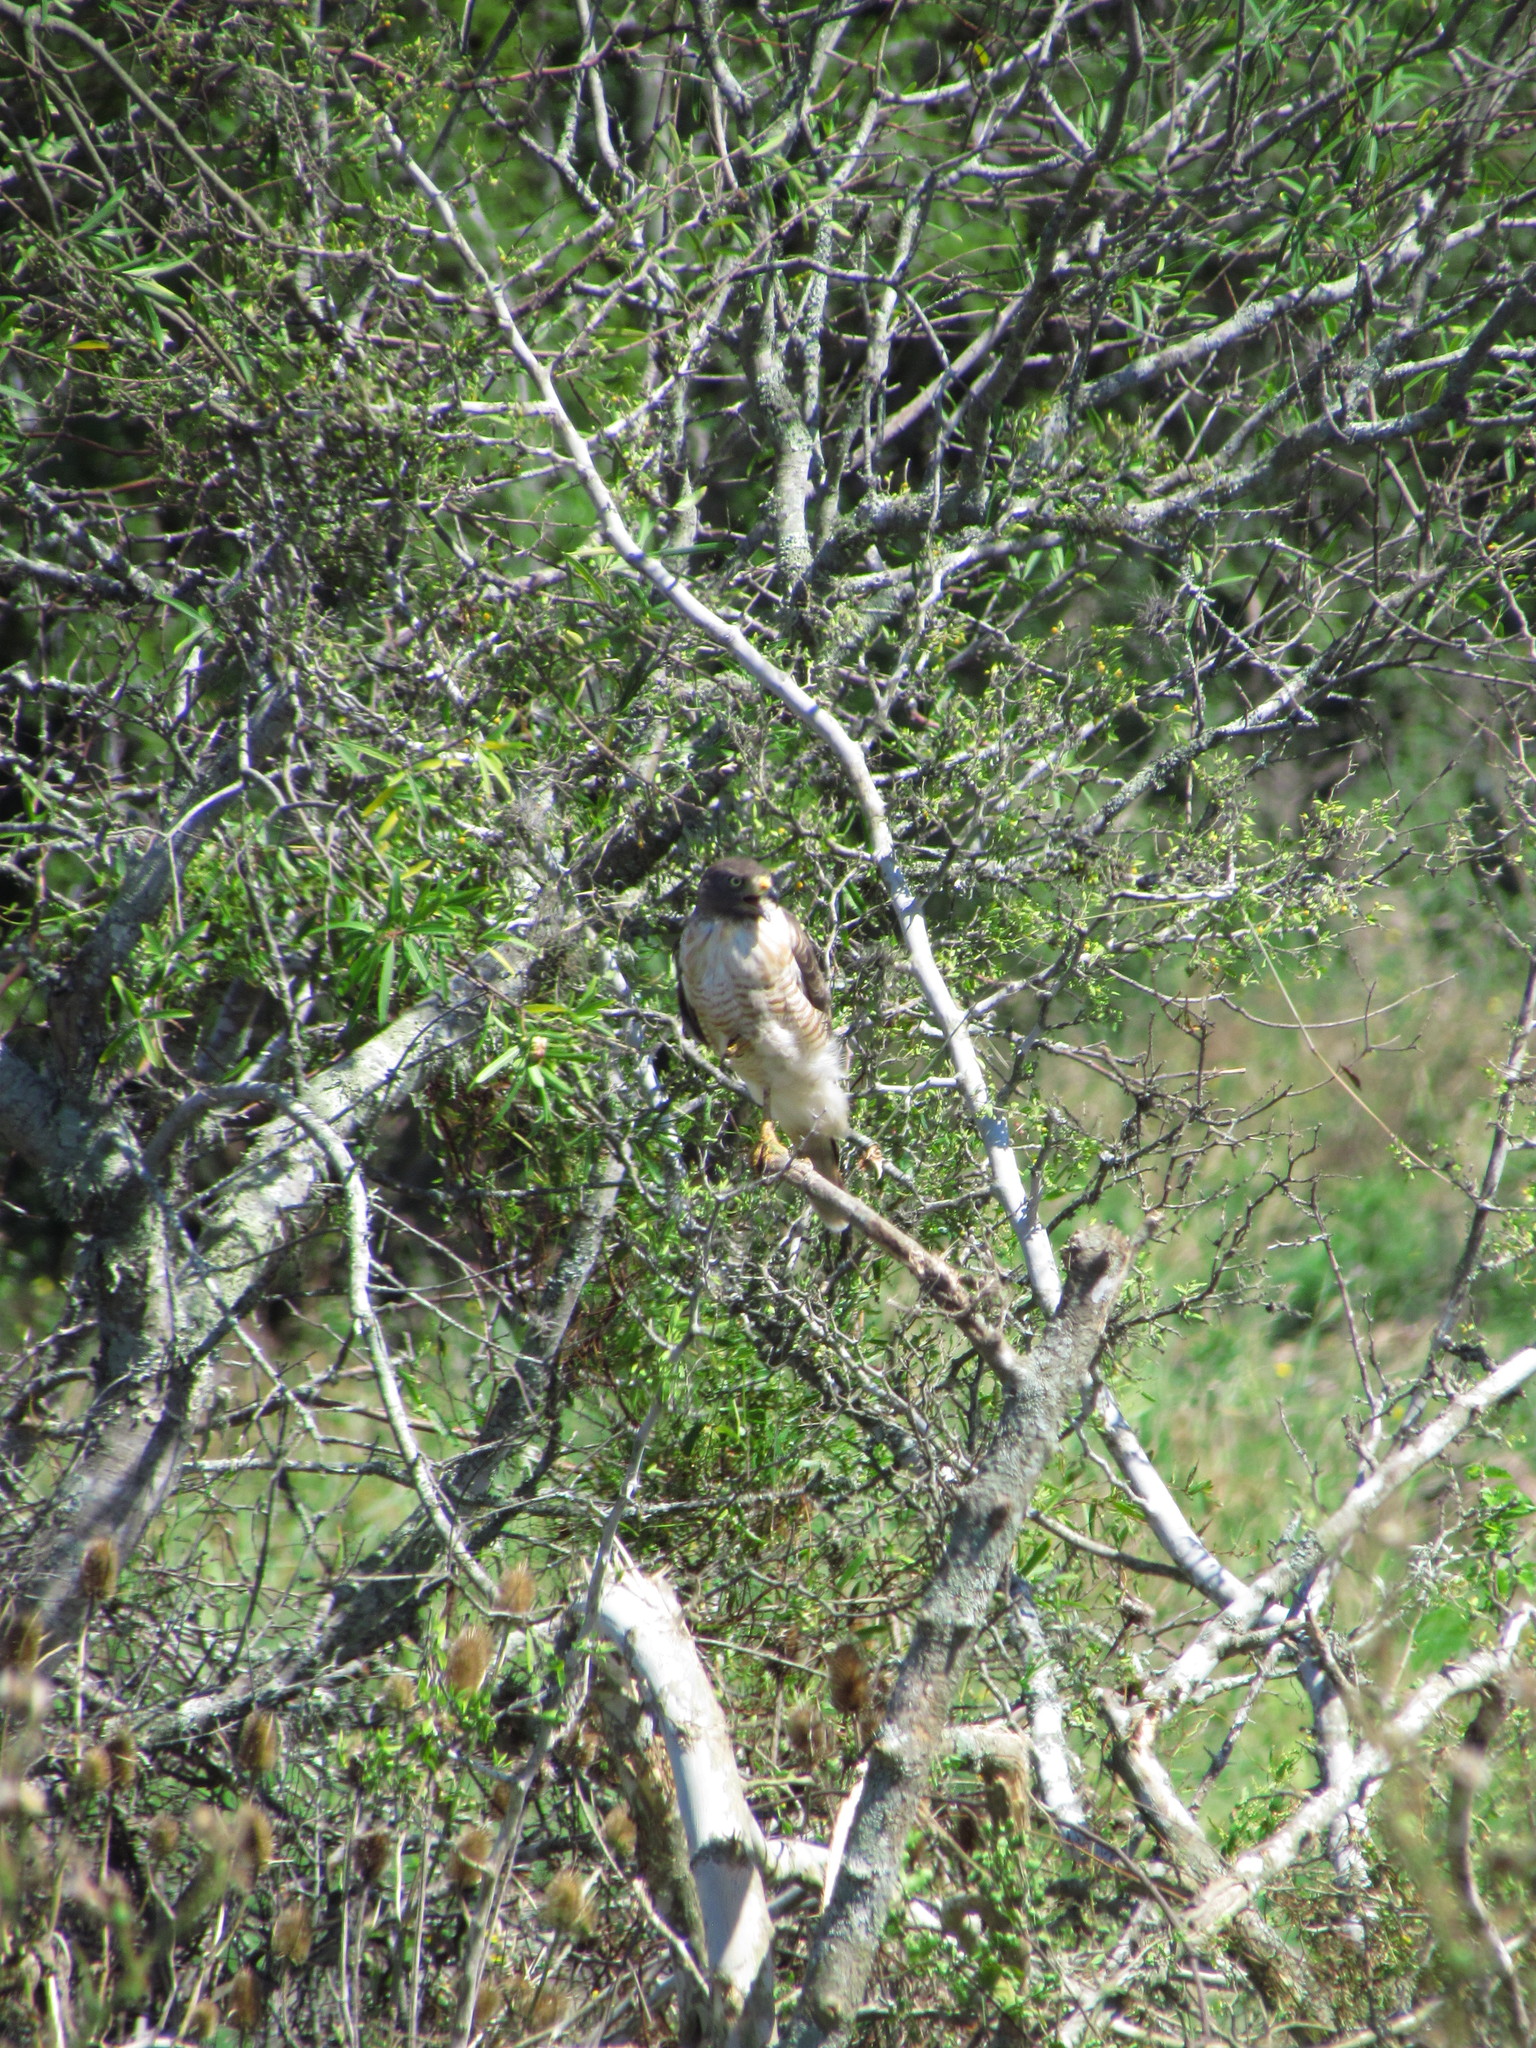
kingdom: Animalia
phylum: Chordata
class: Aves
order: Accipitriformes
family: Accipitridae
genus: Rupornis
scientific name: Rupornis magnirostris
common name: Roadside hawk
